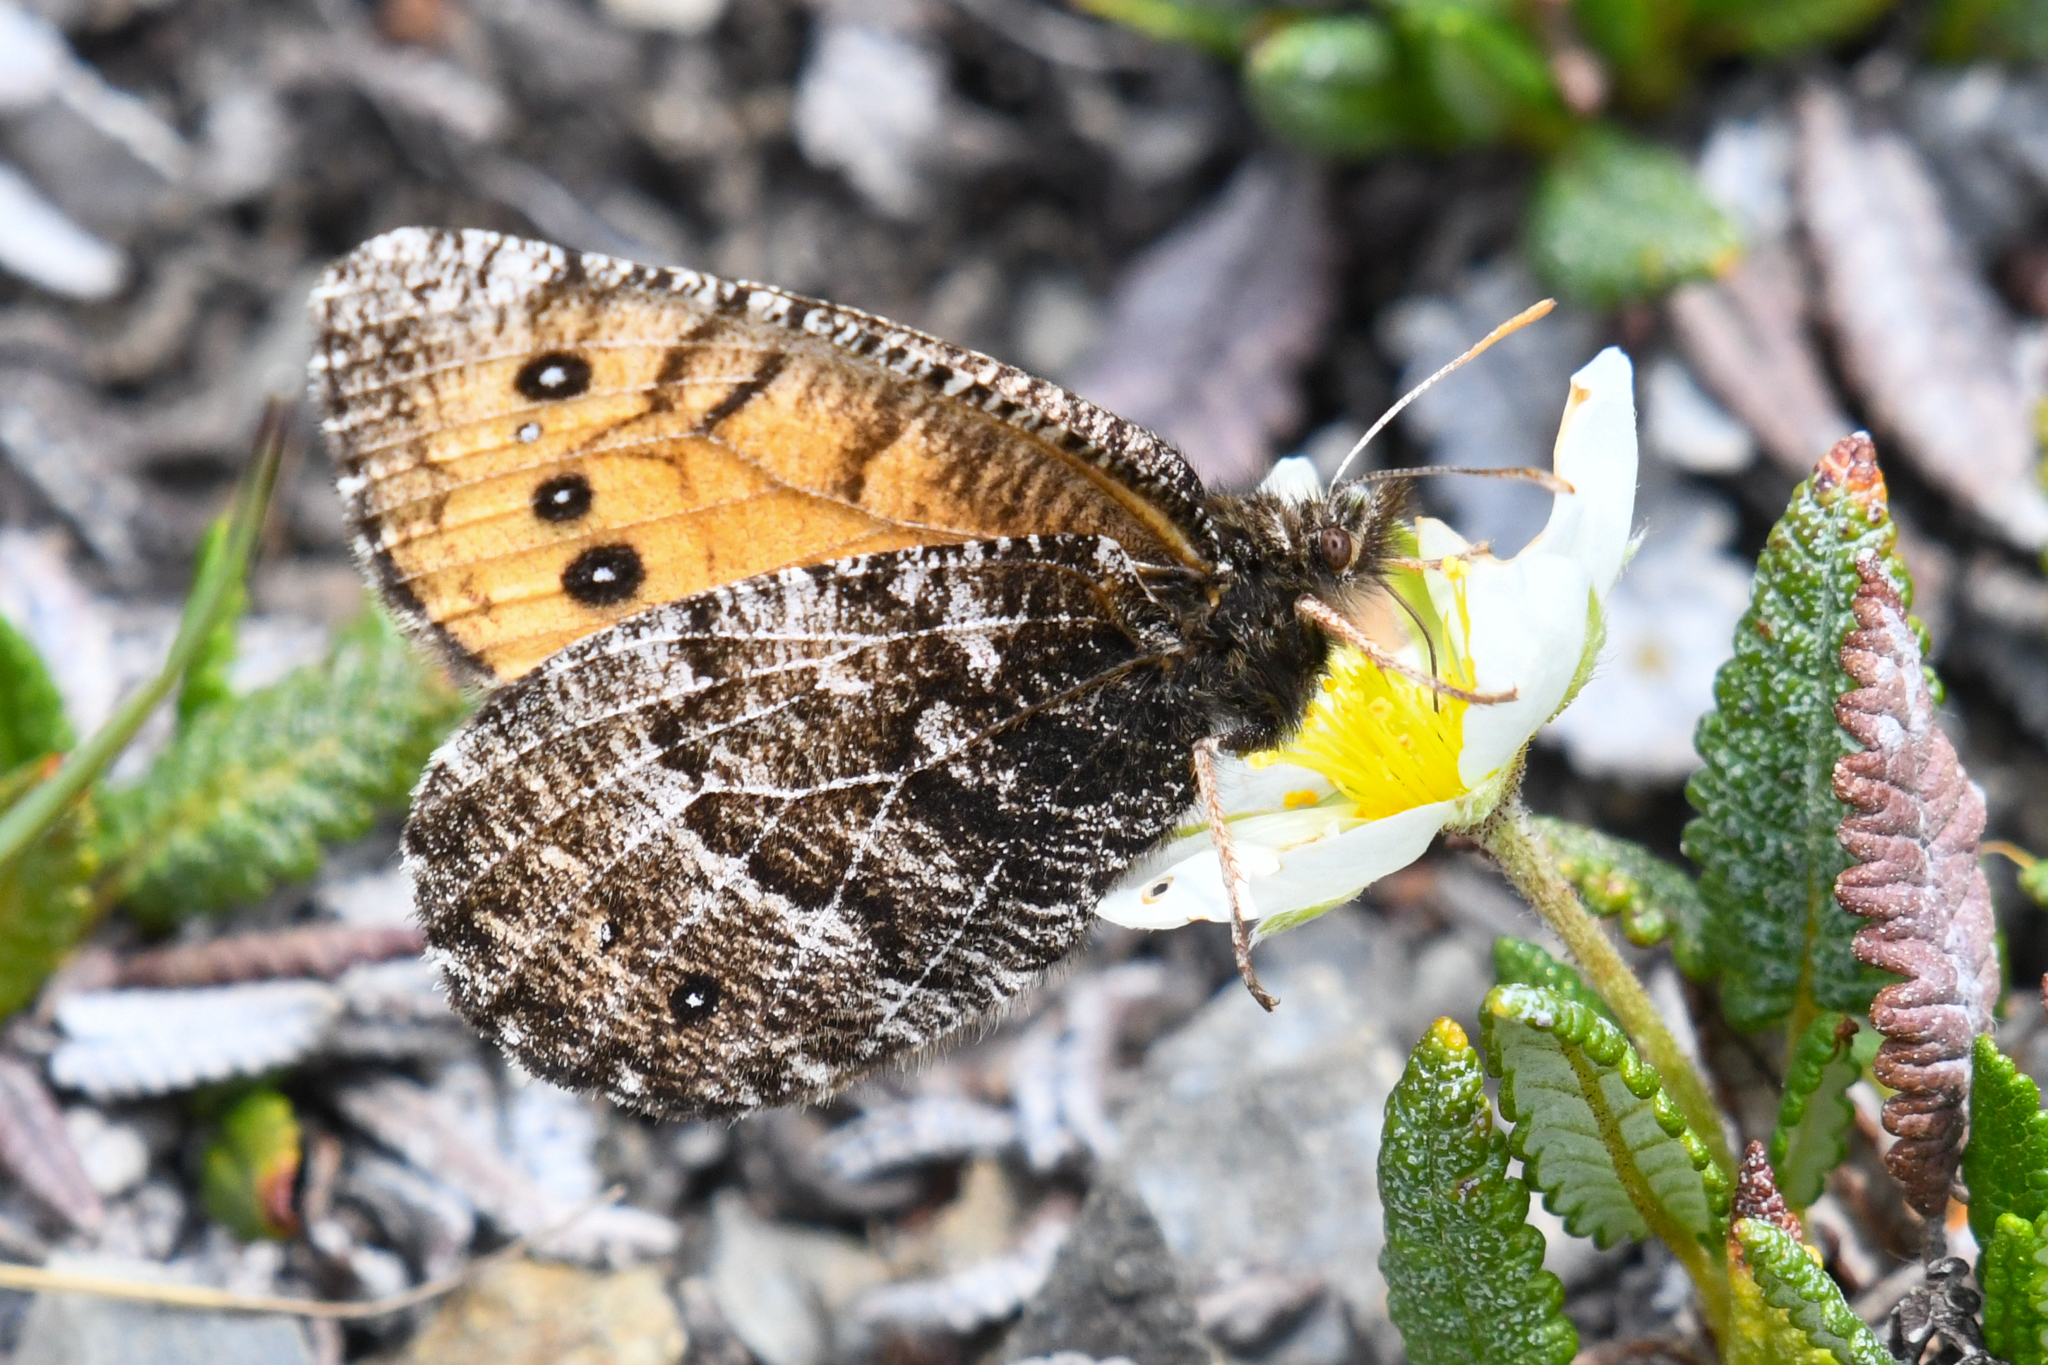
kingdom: Animalia
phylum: Arthropoda
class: Insecta
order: Lepidoptera
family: Nymphalidae
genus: Oeneis
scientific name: Oeneis chryxus
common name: Chryxus arctic
